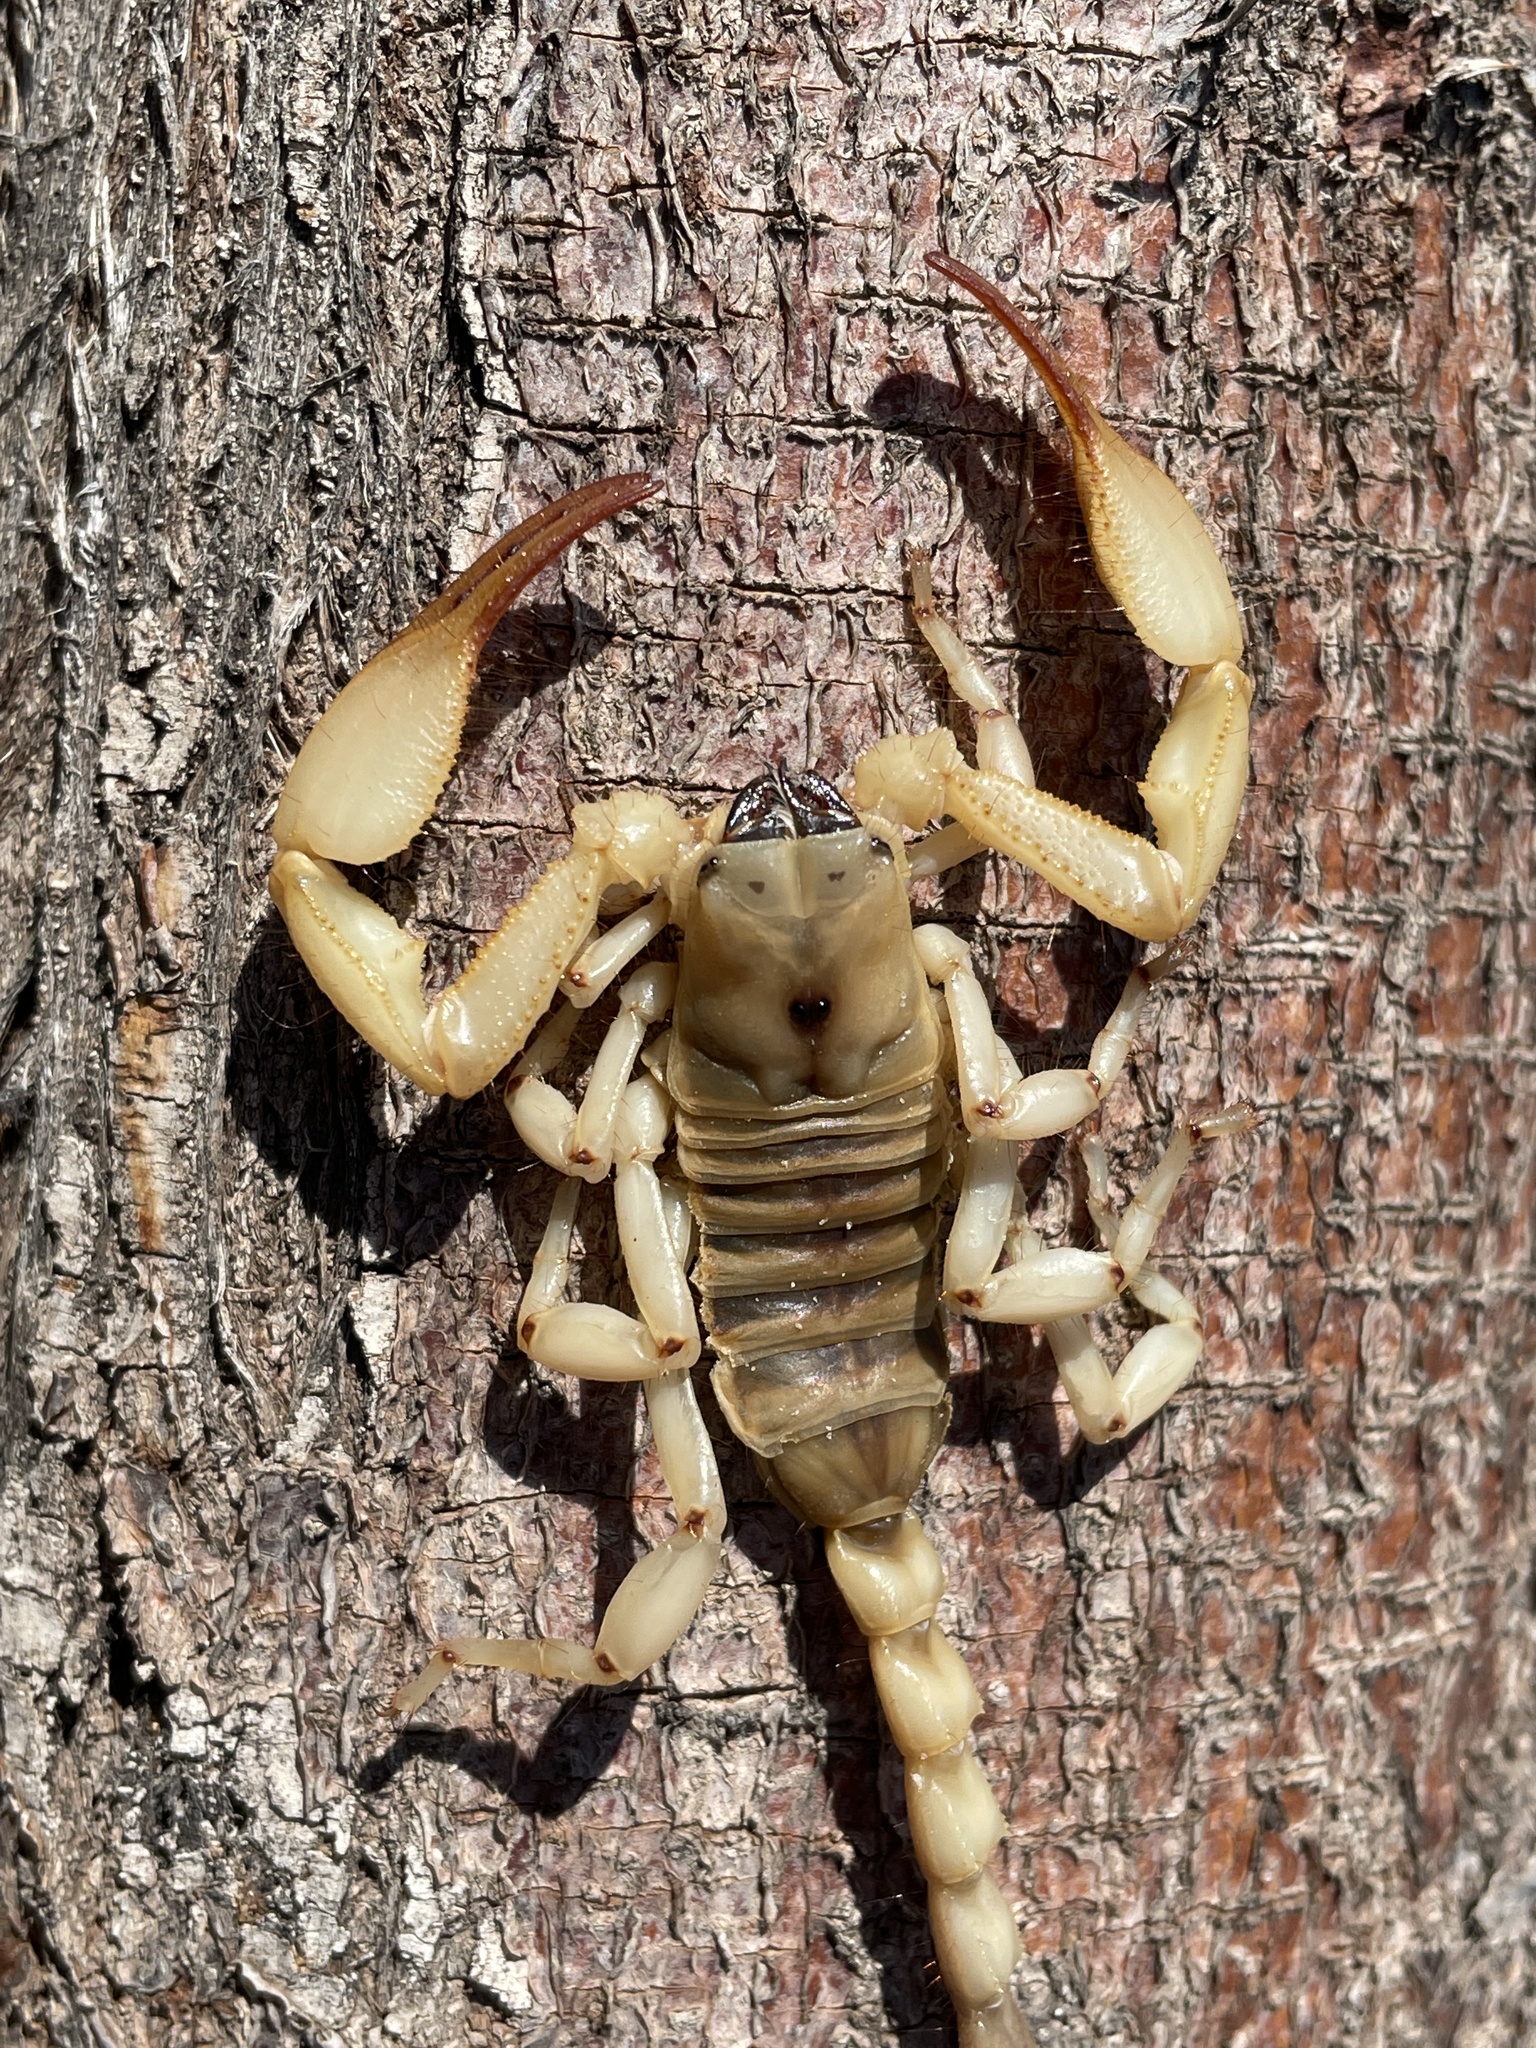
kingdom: Animalia
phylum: Arthropoda
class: Arachnida
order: Scorpiones
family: Scorpionidae
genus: Opistophthalmus
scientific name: Opistophthalmus wahlbergii
